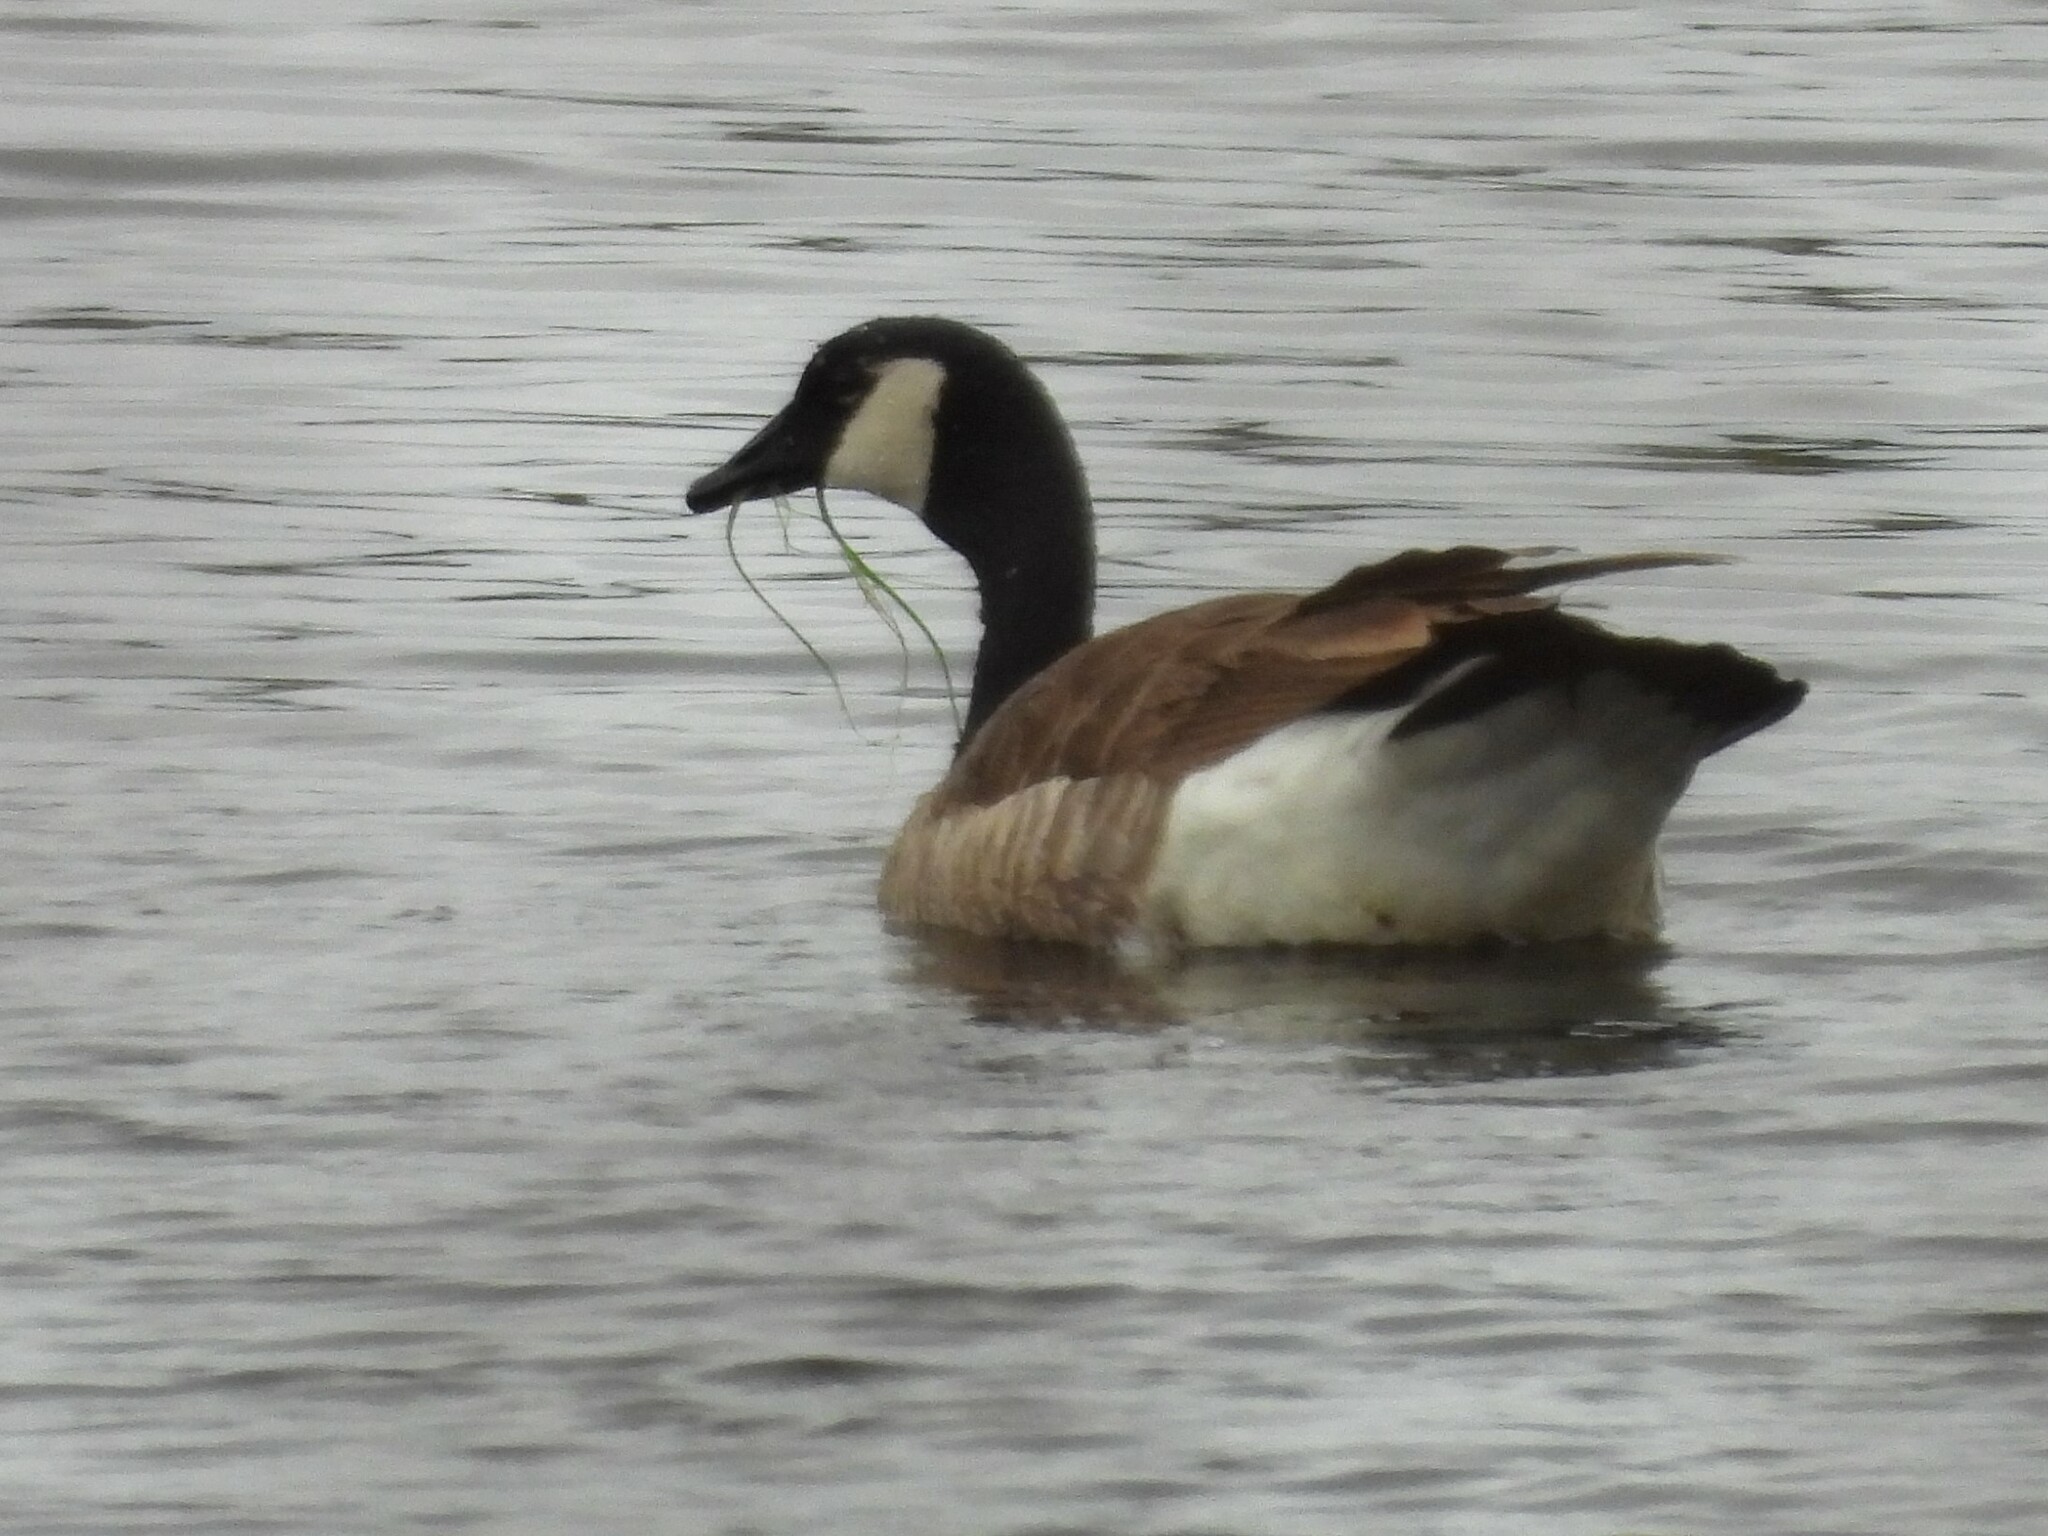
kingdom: Animalia
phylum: Chordata
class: Aves
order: Anseriformes
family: Anatidae
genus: Branta
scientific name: Branta canadensis
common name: Canada goose
